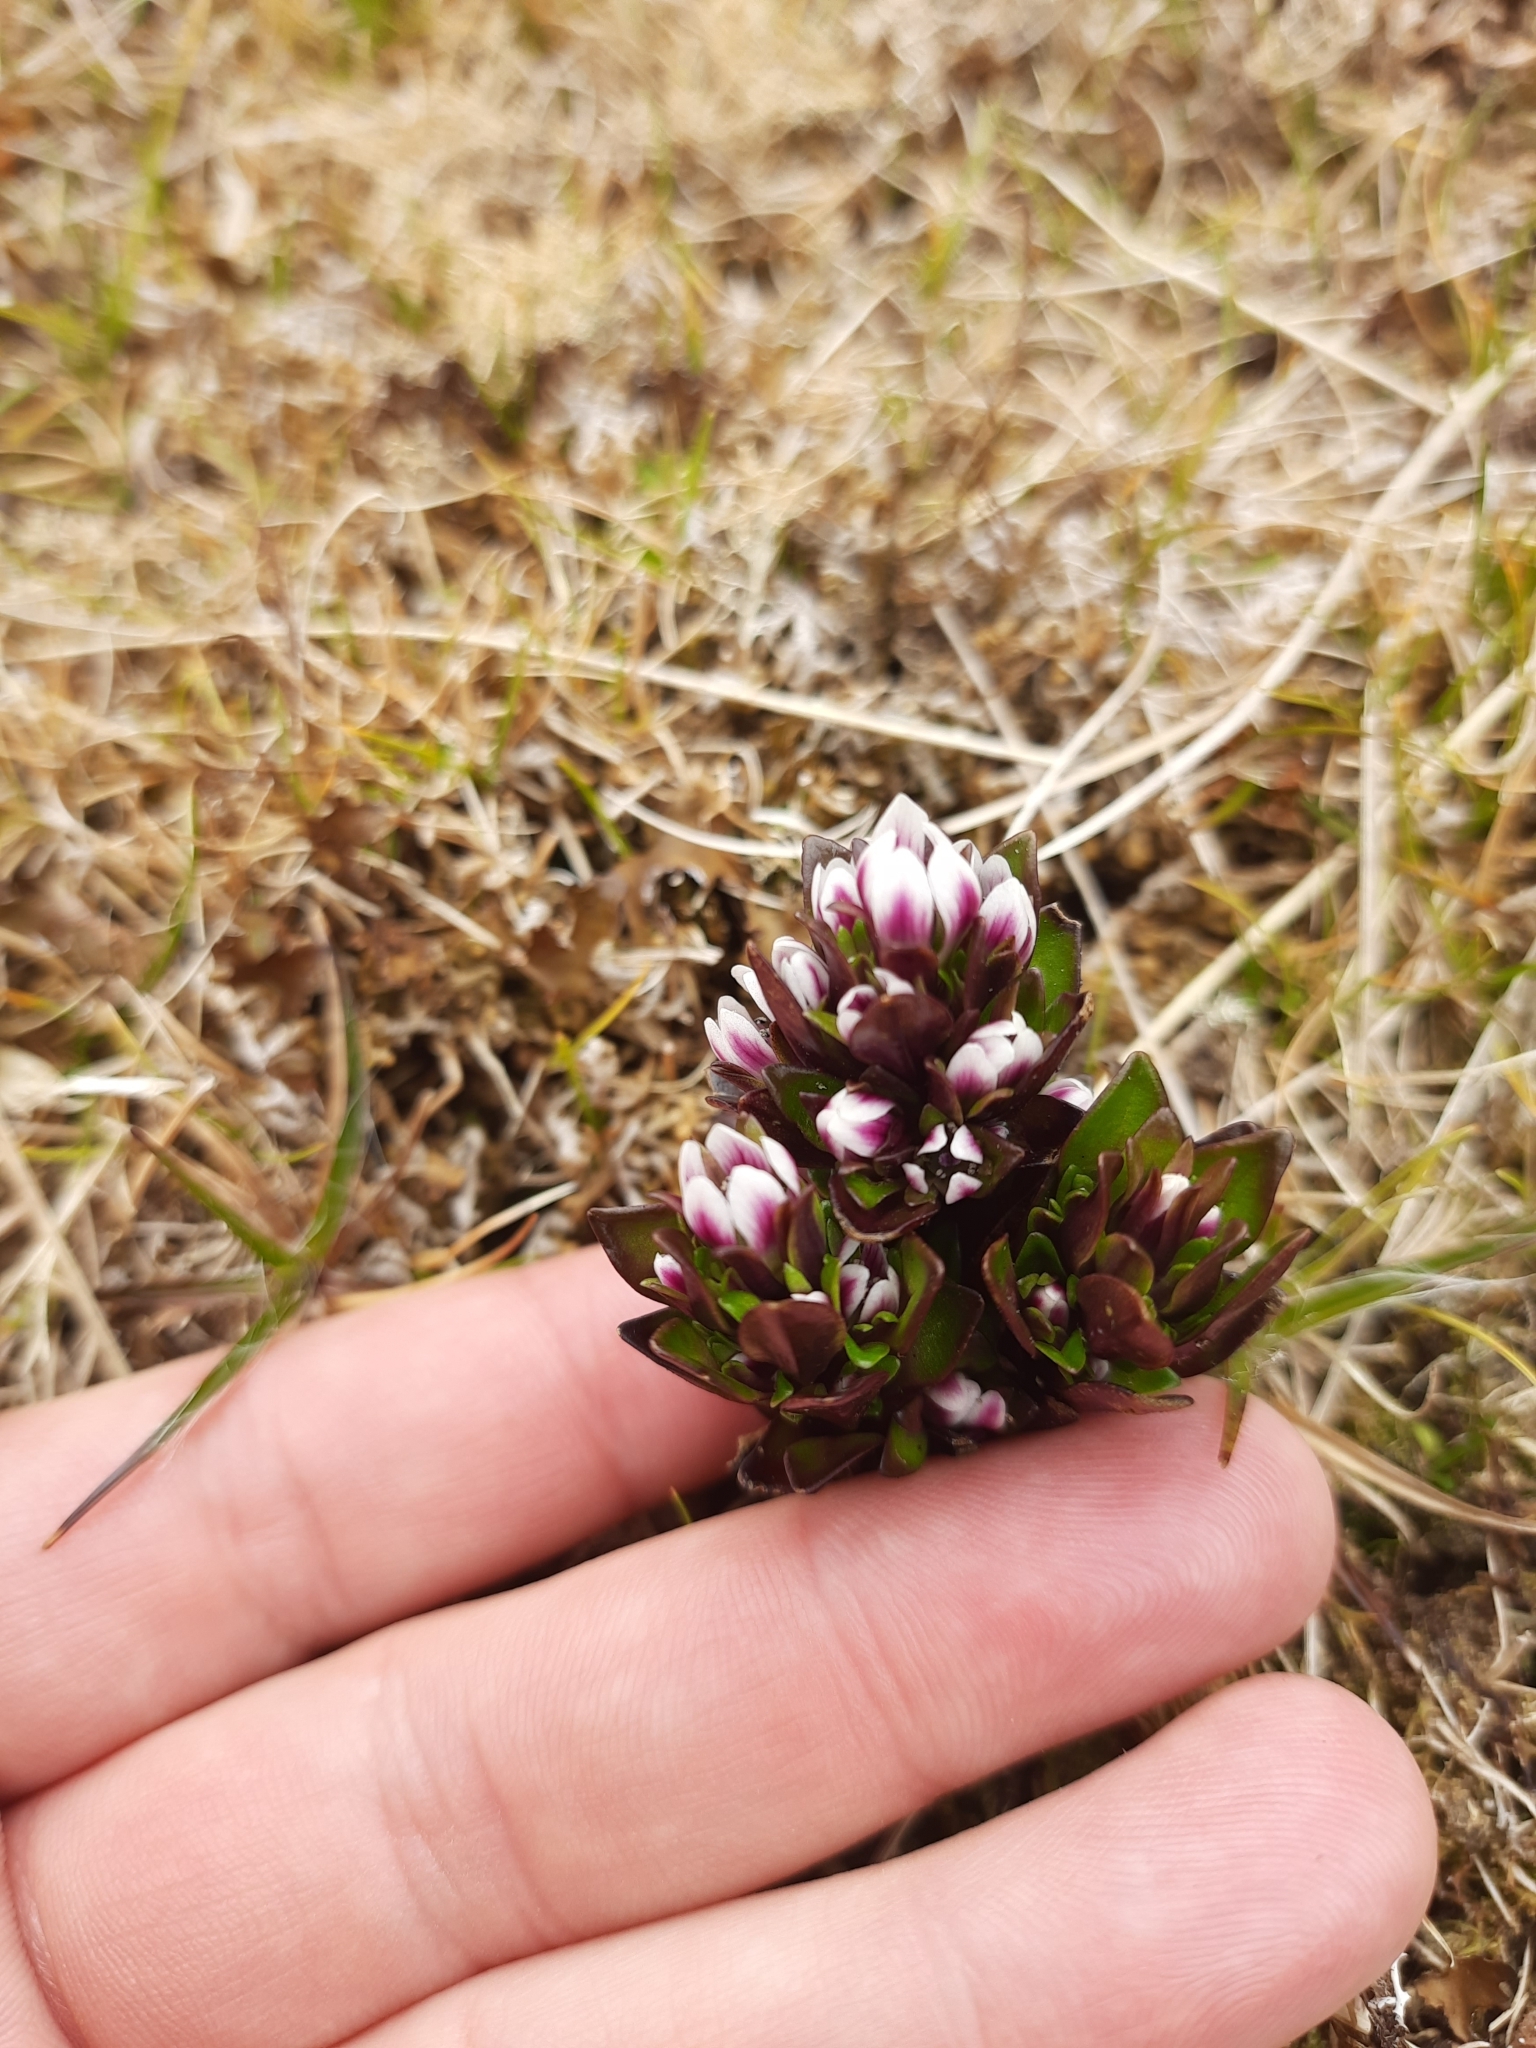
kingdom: Plantae
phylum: Tracheophyta
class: Magnoliopsida
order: Gentianales
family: Gentianaceae
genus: Gentianella
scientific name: Gentianella antarctica
